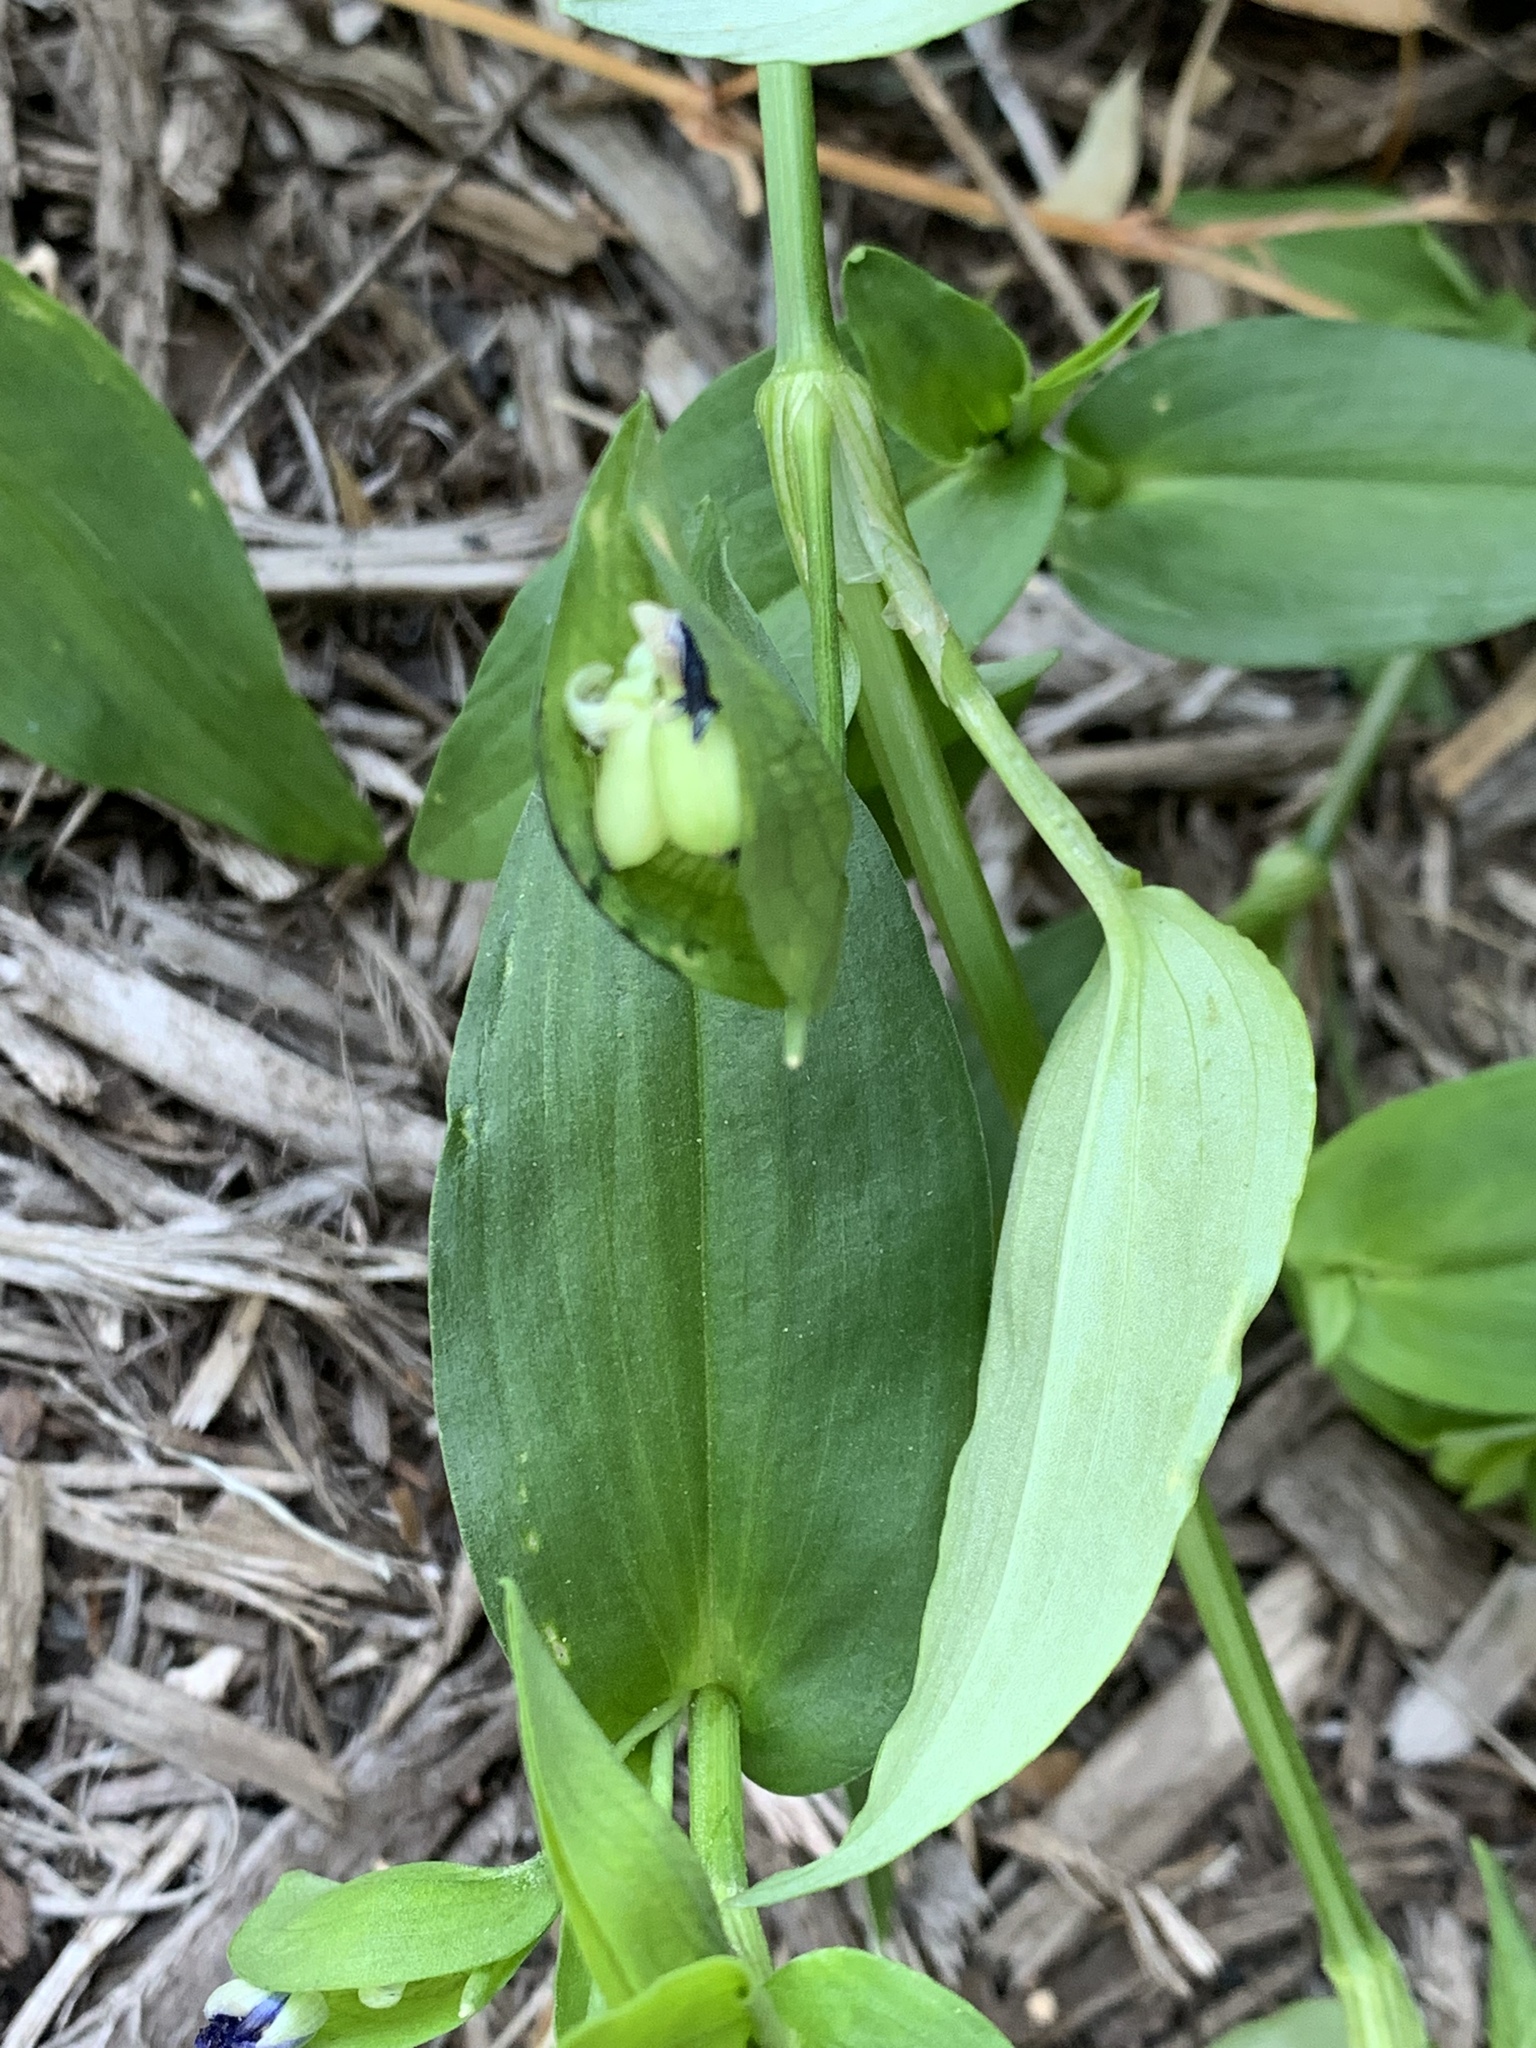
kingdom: Plantae
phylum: Tracheophyta
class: Liliopsida
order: Commelinales
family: Commelinaceae
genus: Commelina
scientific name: Commelina communis
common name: Asiatic dayflower
